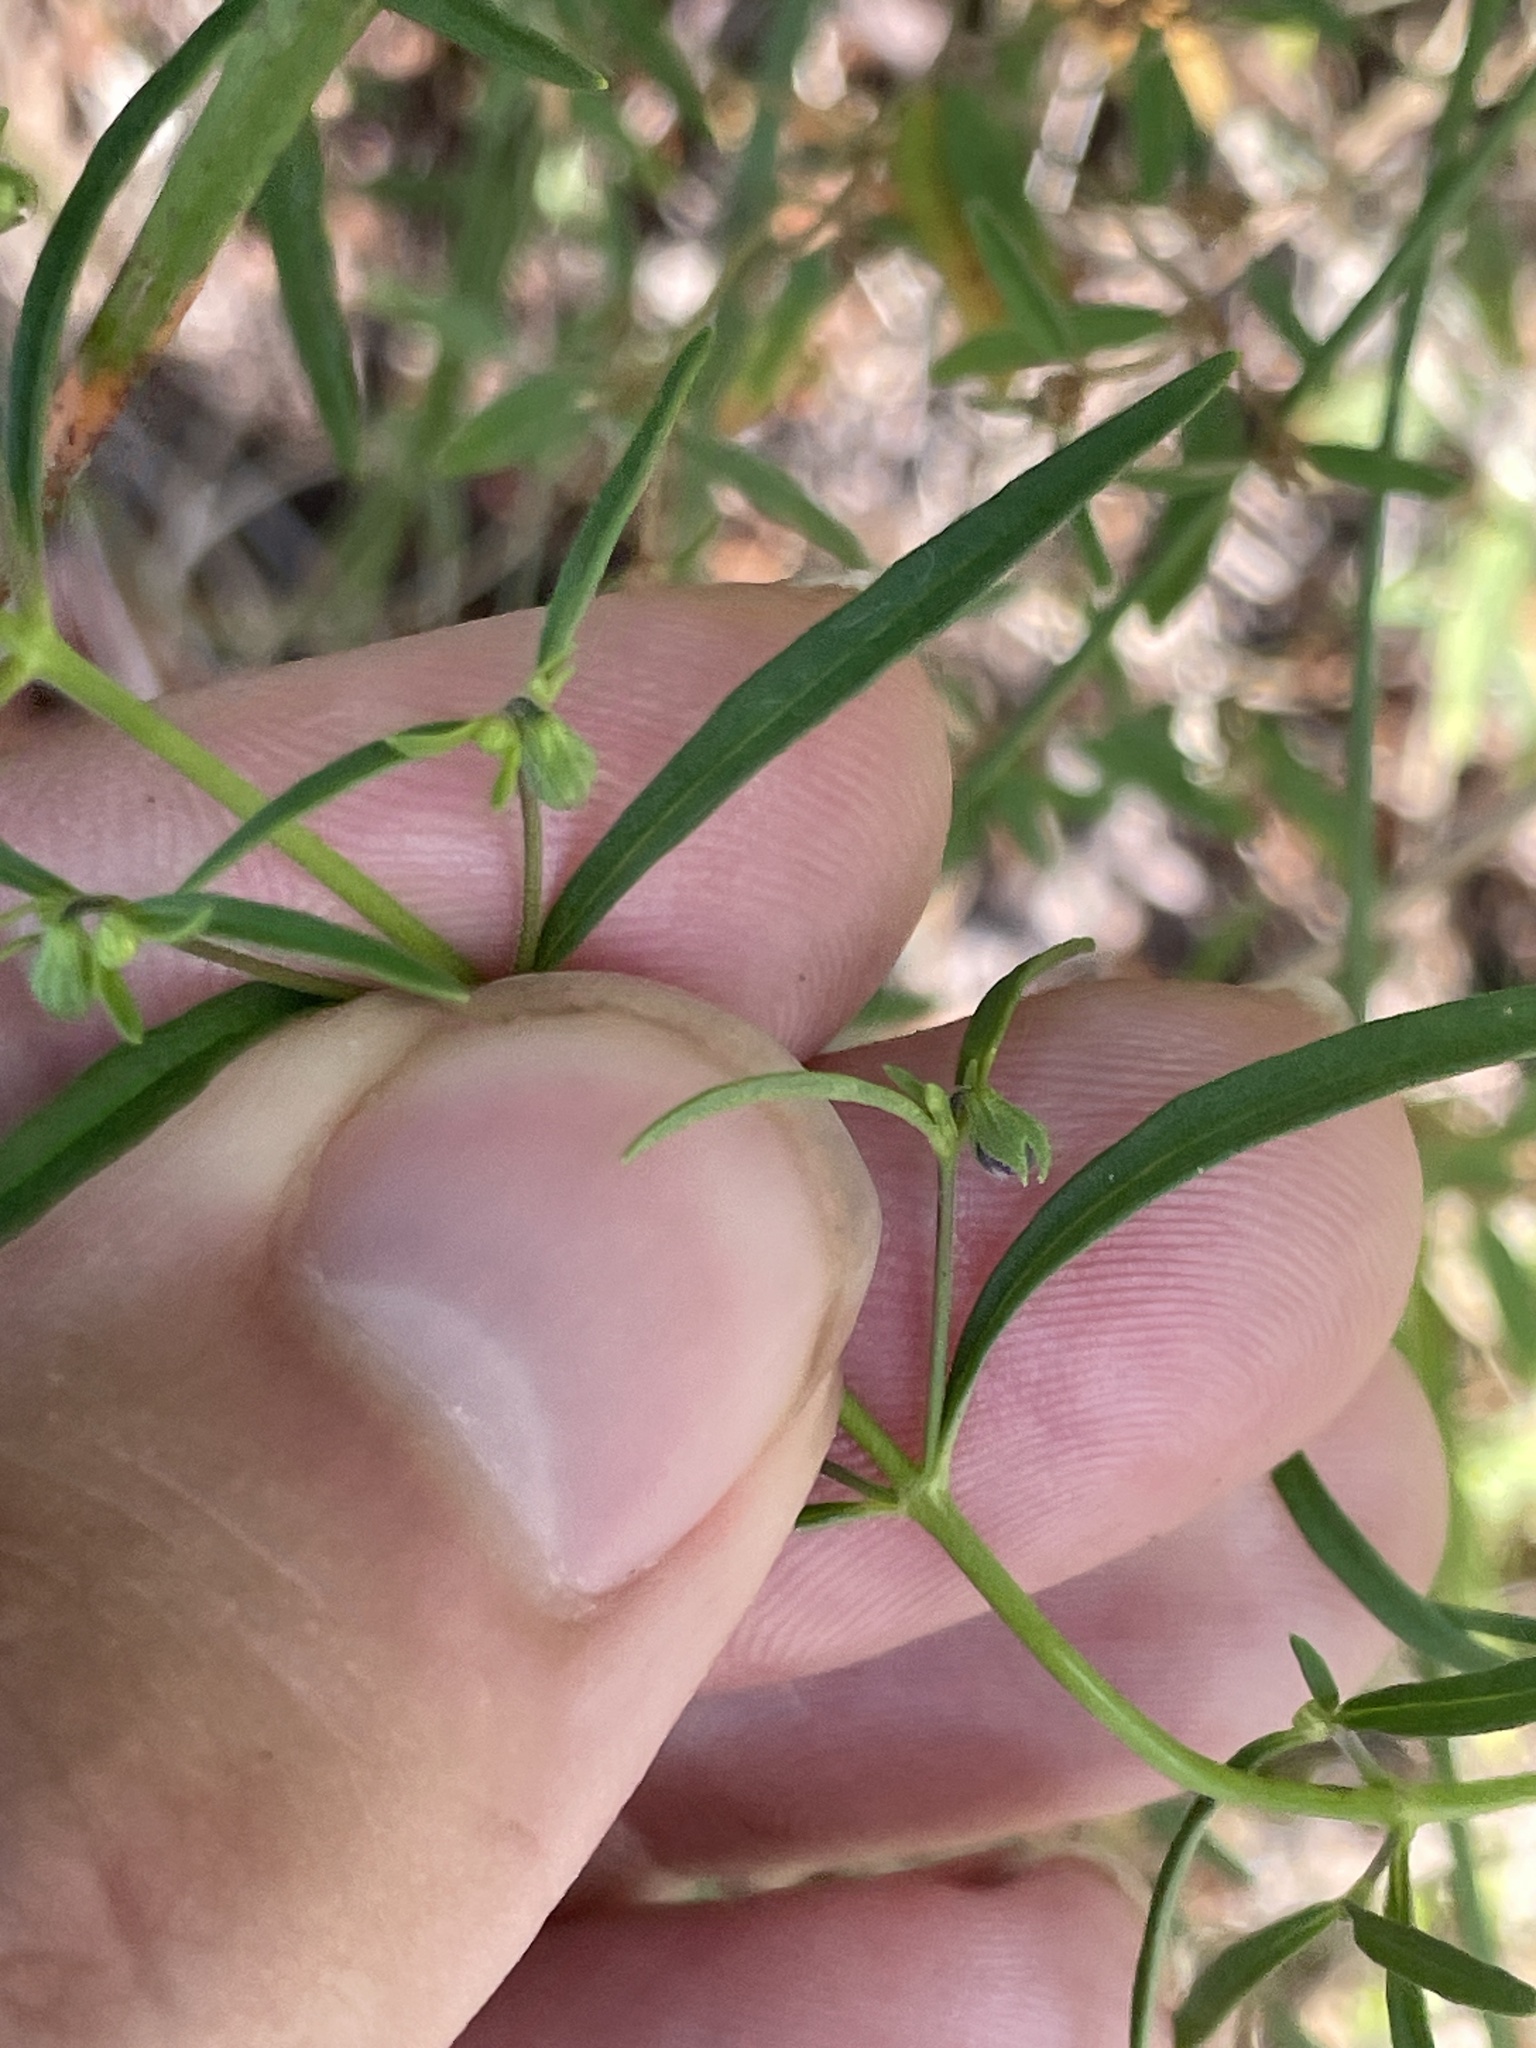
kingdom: Plantae
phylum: Tracheophyta
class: Magnoliopsida
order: Lamiales
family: Lamiaceae
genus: Trichostema
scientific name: Trichostema setaceum
